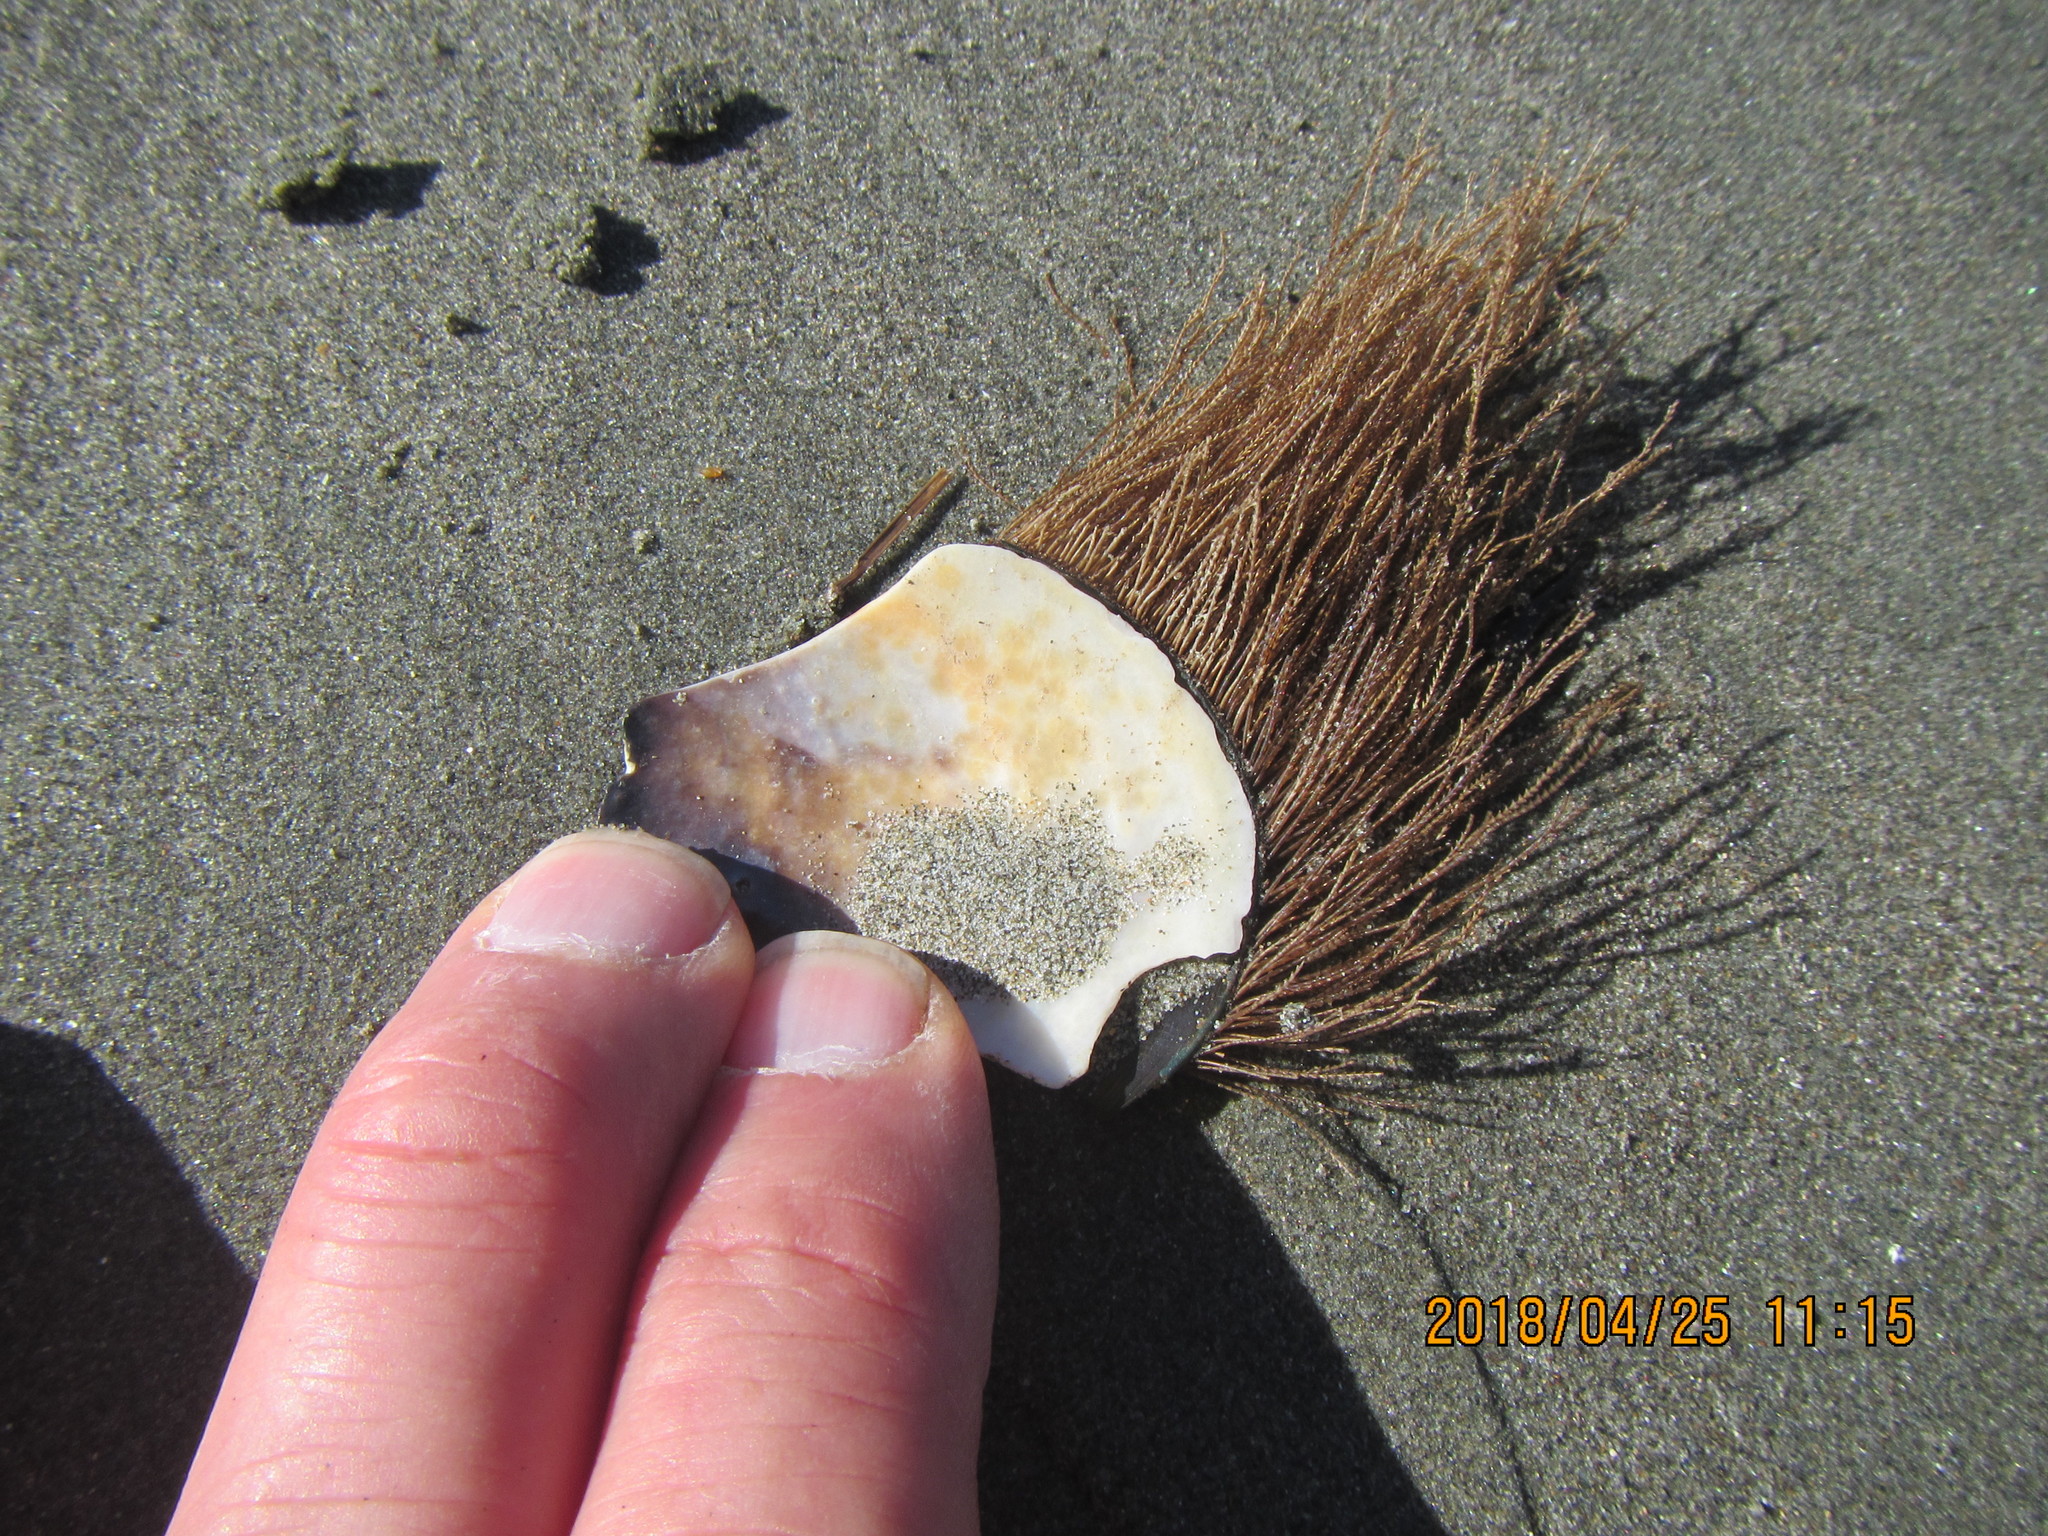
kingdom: Animalia
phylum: Cnidaria
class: Hydrozoa
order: Leptothecata
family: Sertulariidae
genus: Amphisbetia
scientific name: Amphisbetia bispinosa
